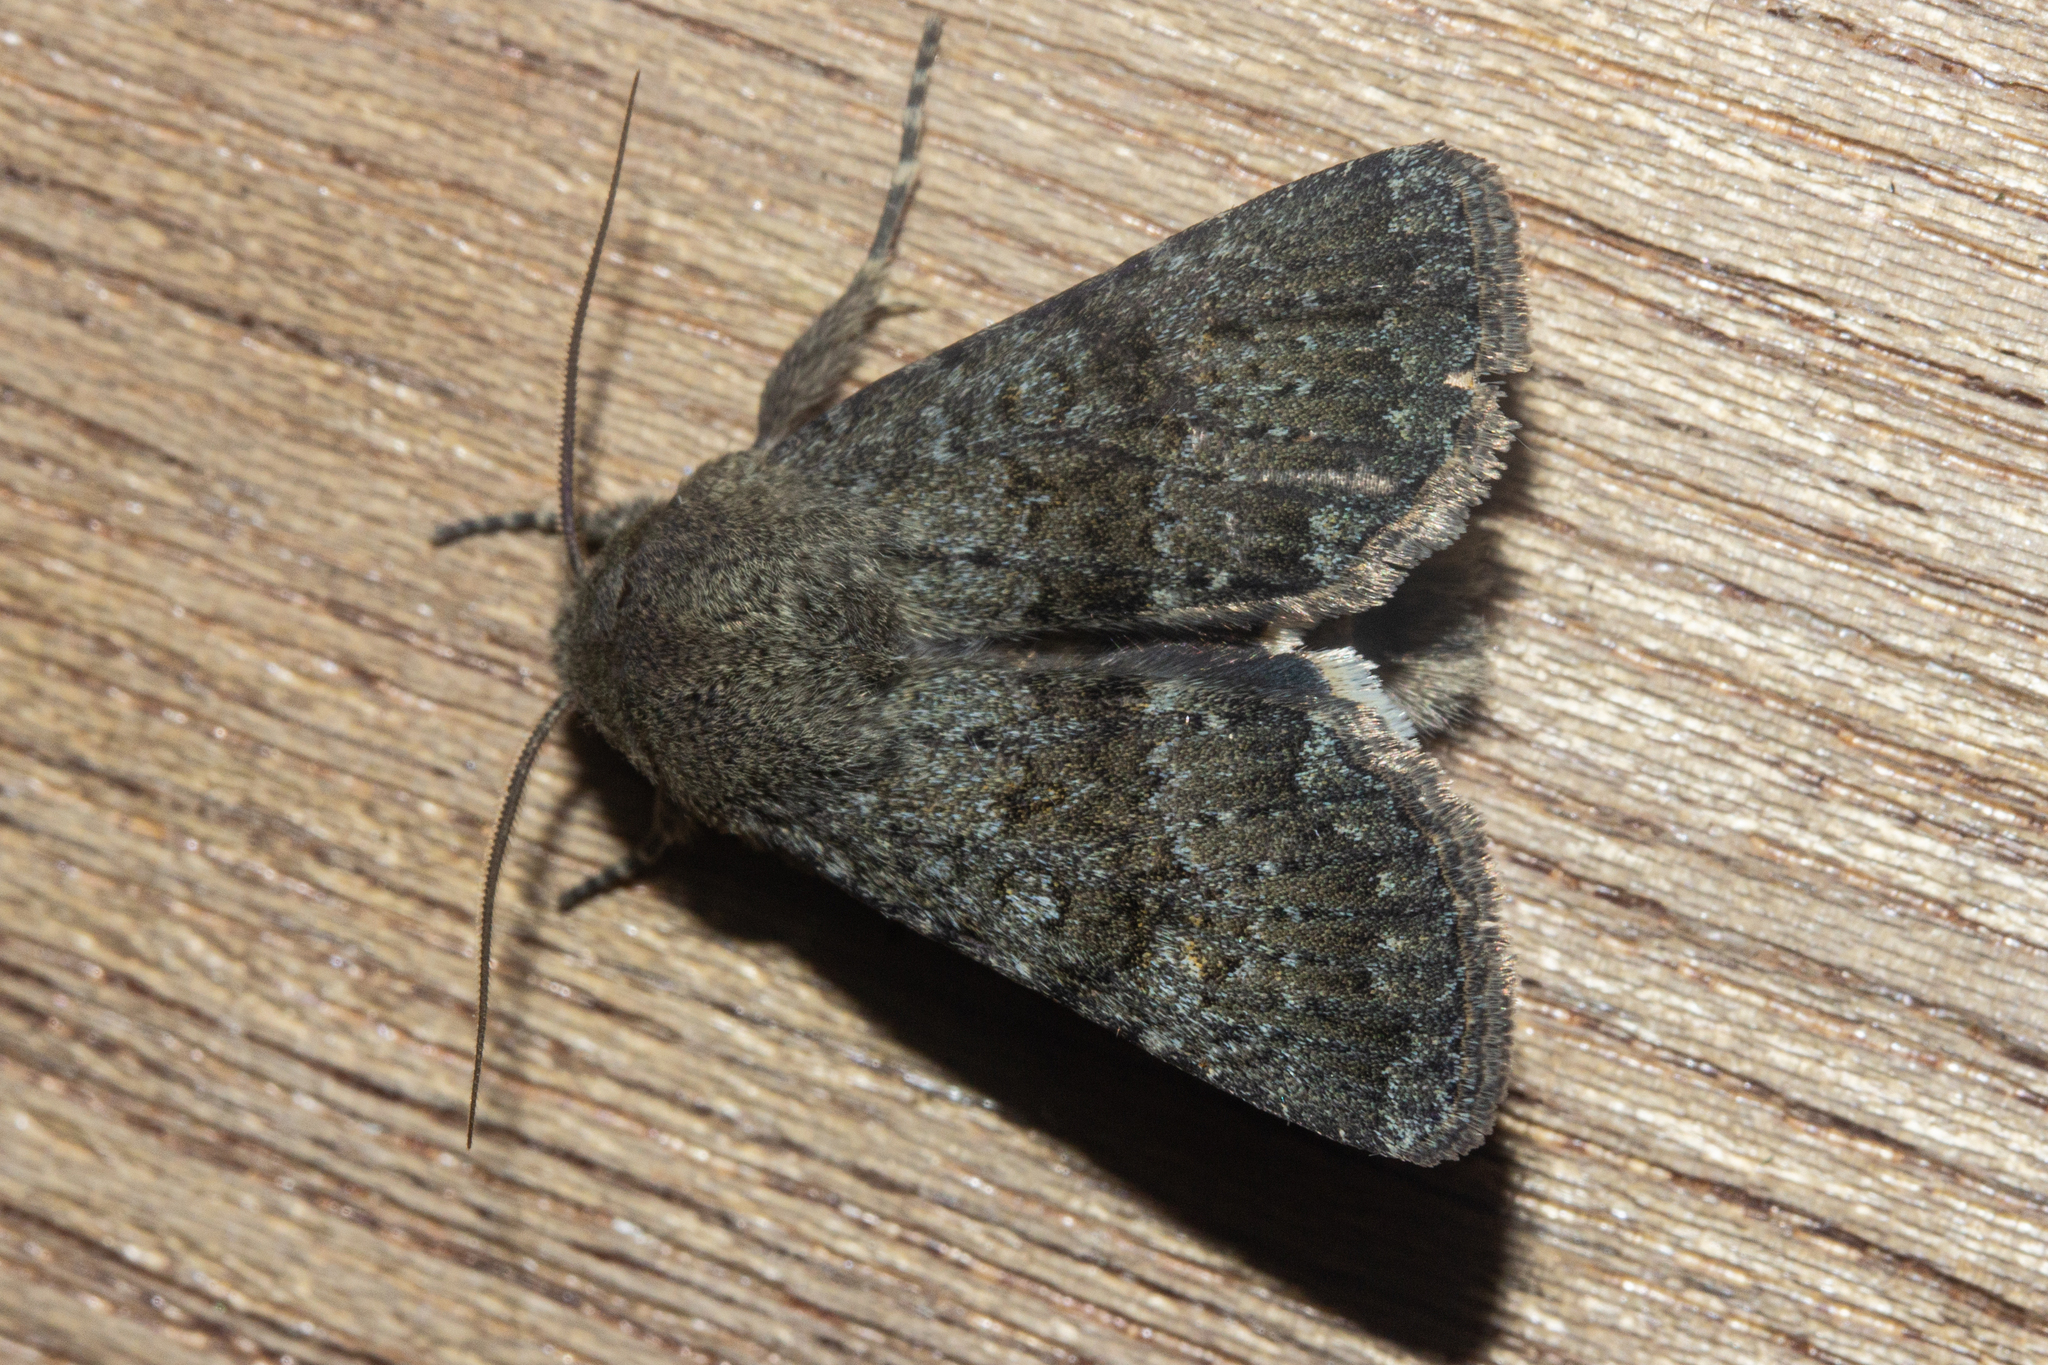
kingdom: Animalia
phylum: Arthropoda
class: Insecta
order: Lepidoptera
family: Noctuidae
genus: Ichneutica
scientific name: Ichneutica moderata
